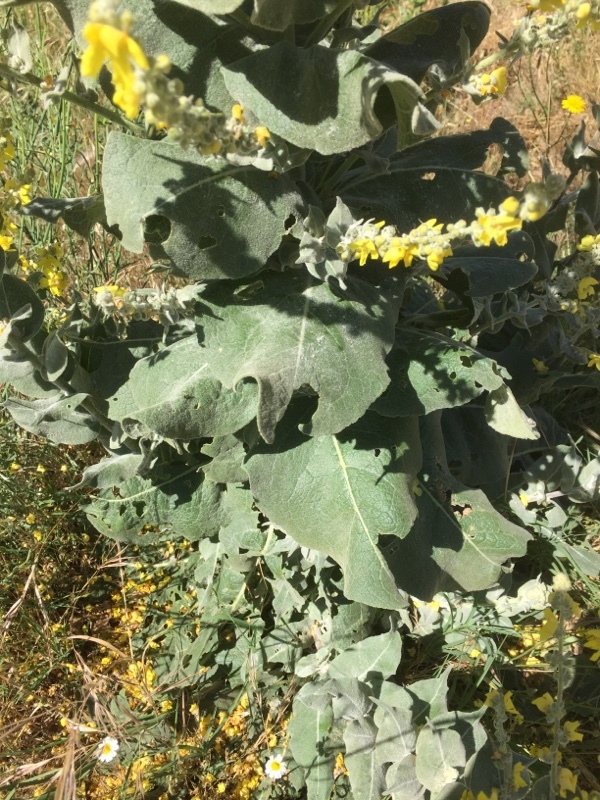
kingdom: Plantae
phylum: Tracheophyta
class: Magnoliopsida
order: Lamiales
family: Scrophulariaceae
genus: Verbascum
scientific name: Verbascum pulverulentum
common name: Broad-leaf mullein
